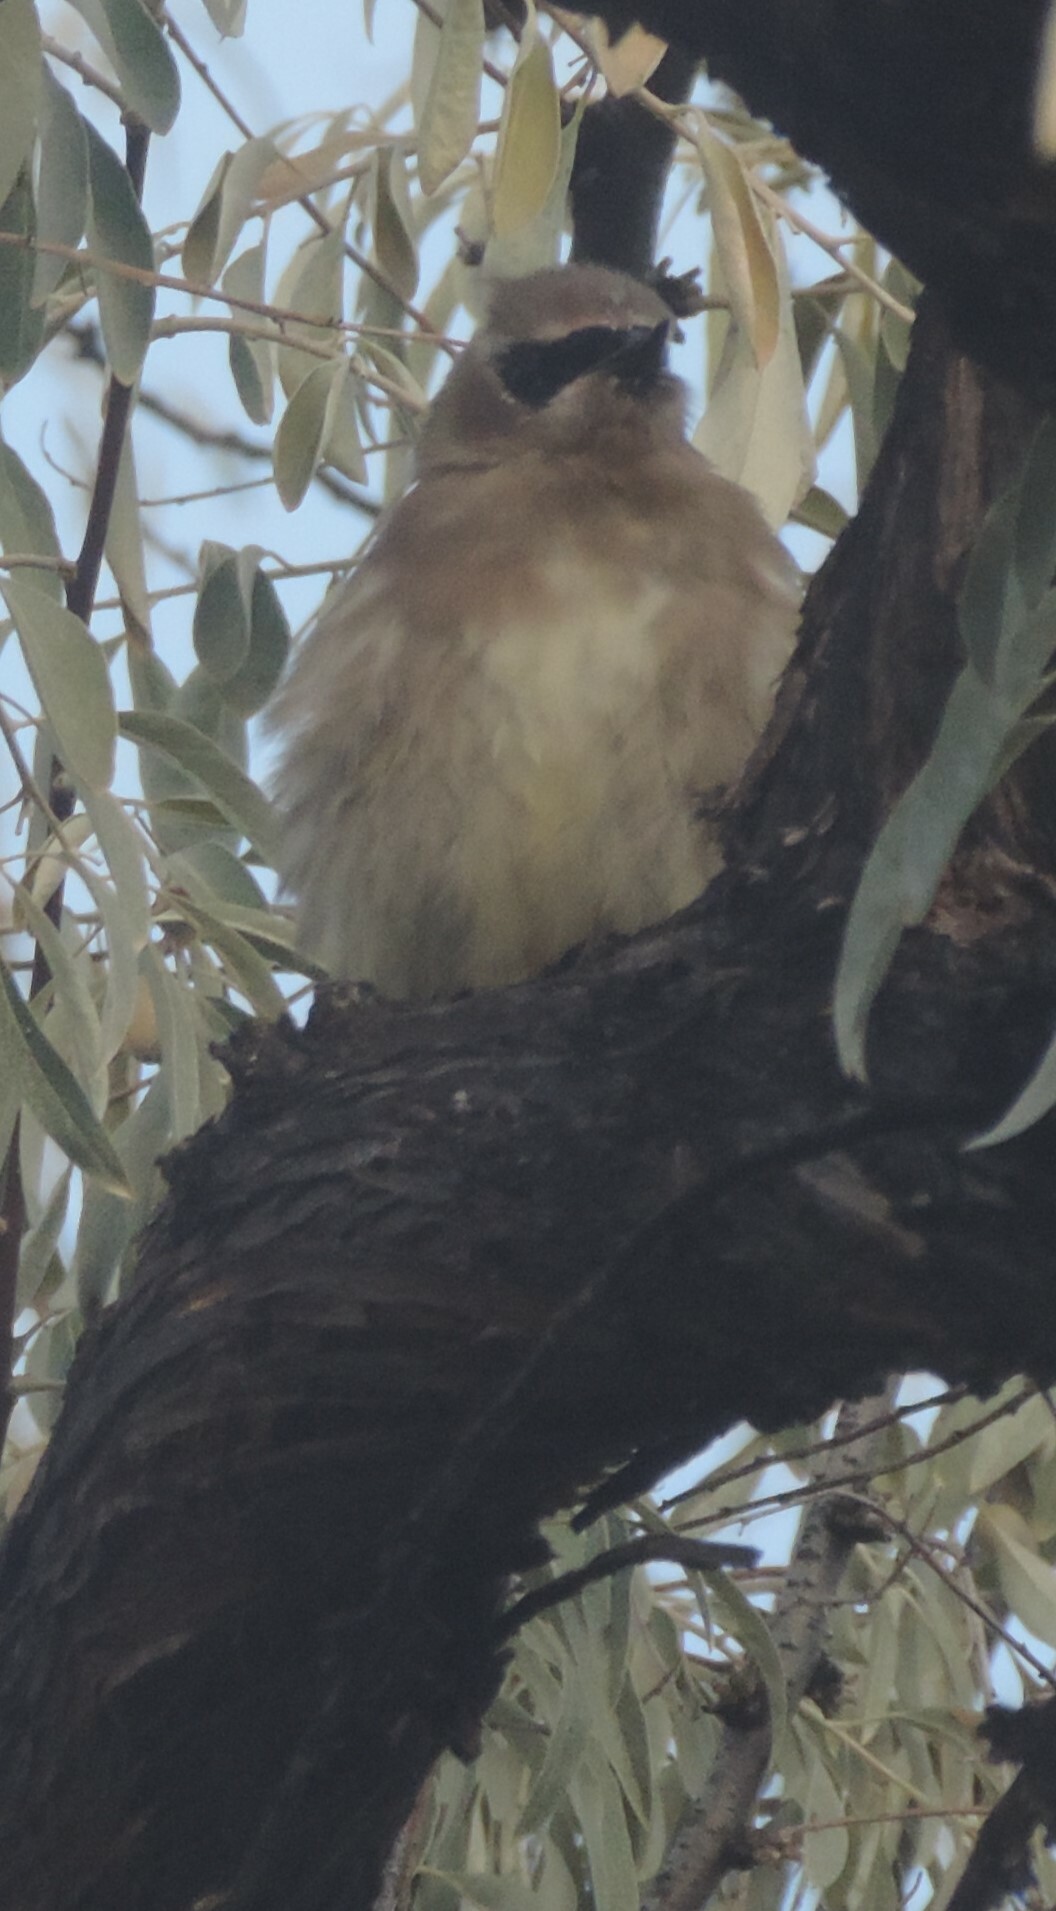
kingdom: Animalia
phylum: Chordata
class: Aves
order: Passeriformes
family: Bombycillidae
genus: Bombycilla
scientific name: Bombycilla cedrorum
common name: Cedar waxwing
